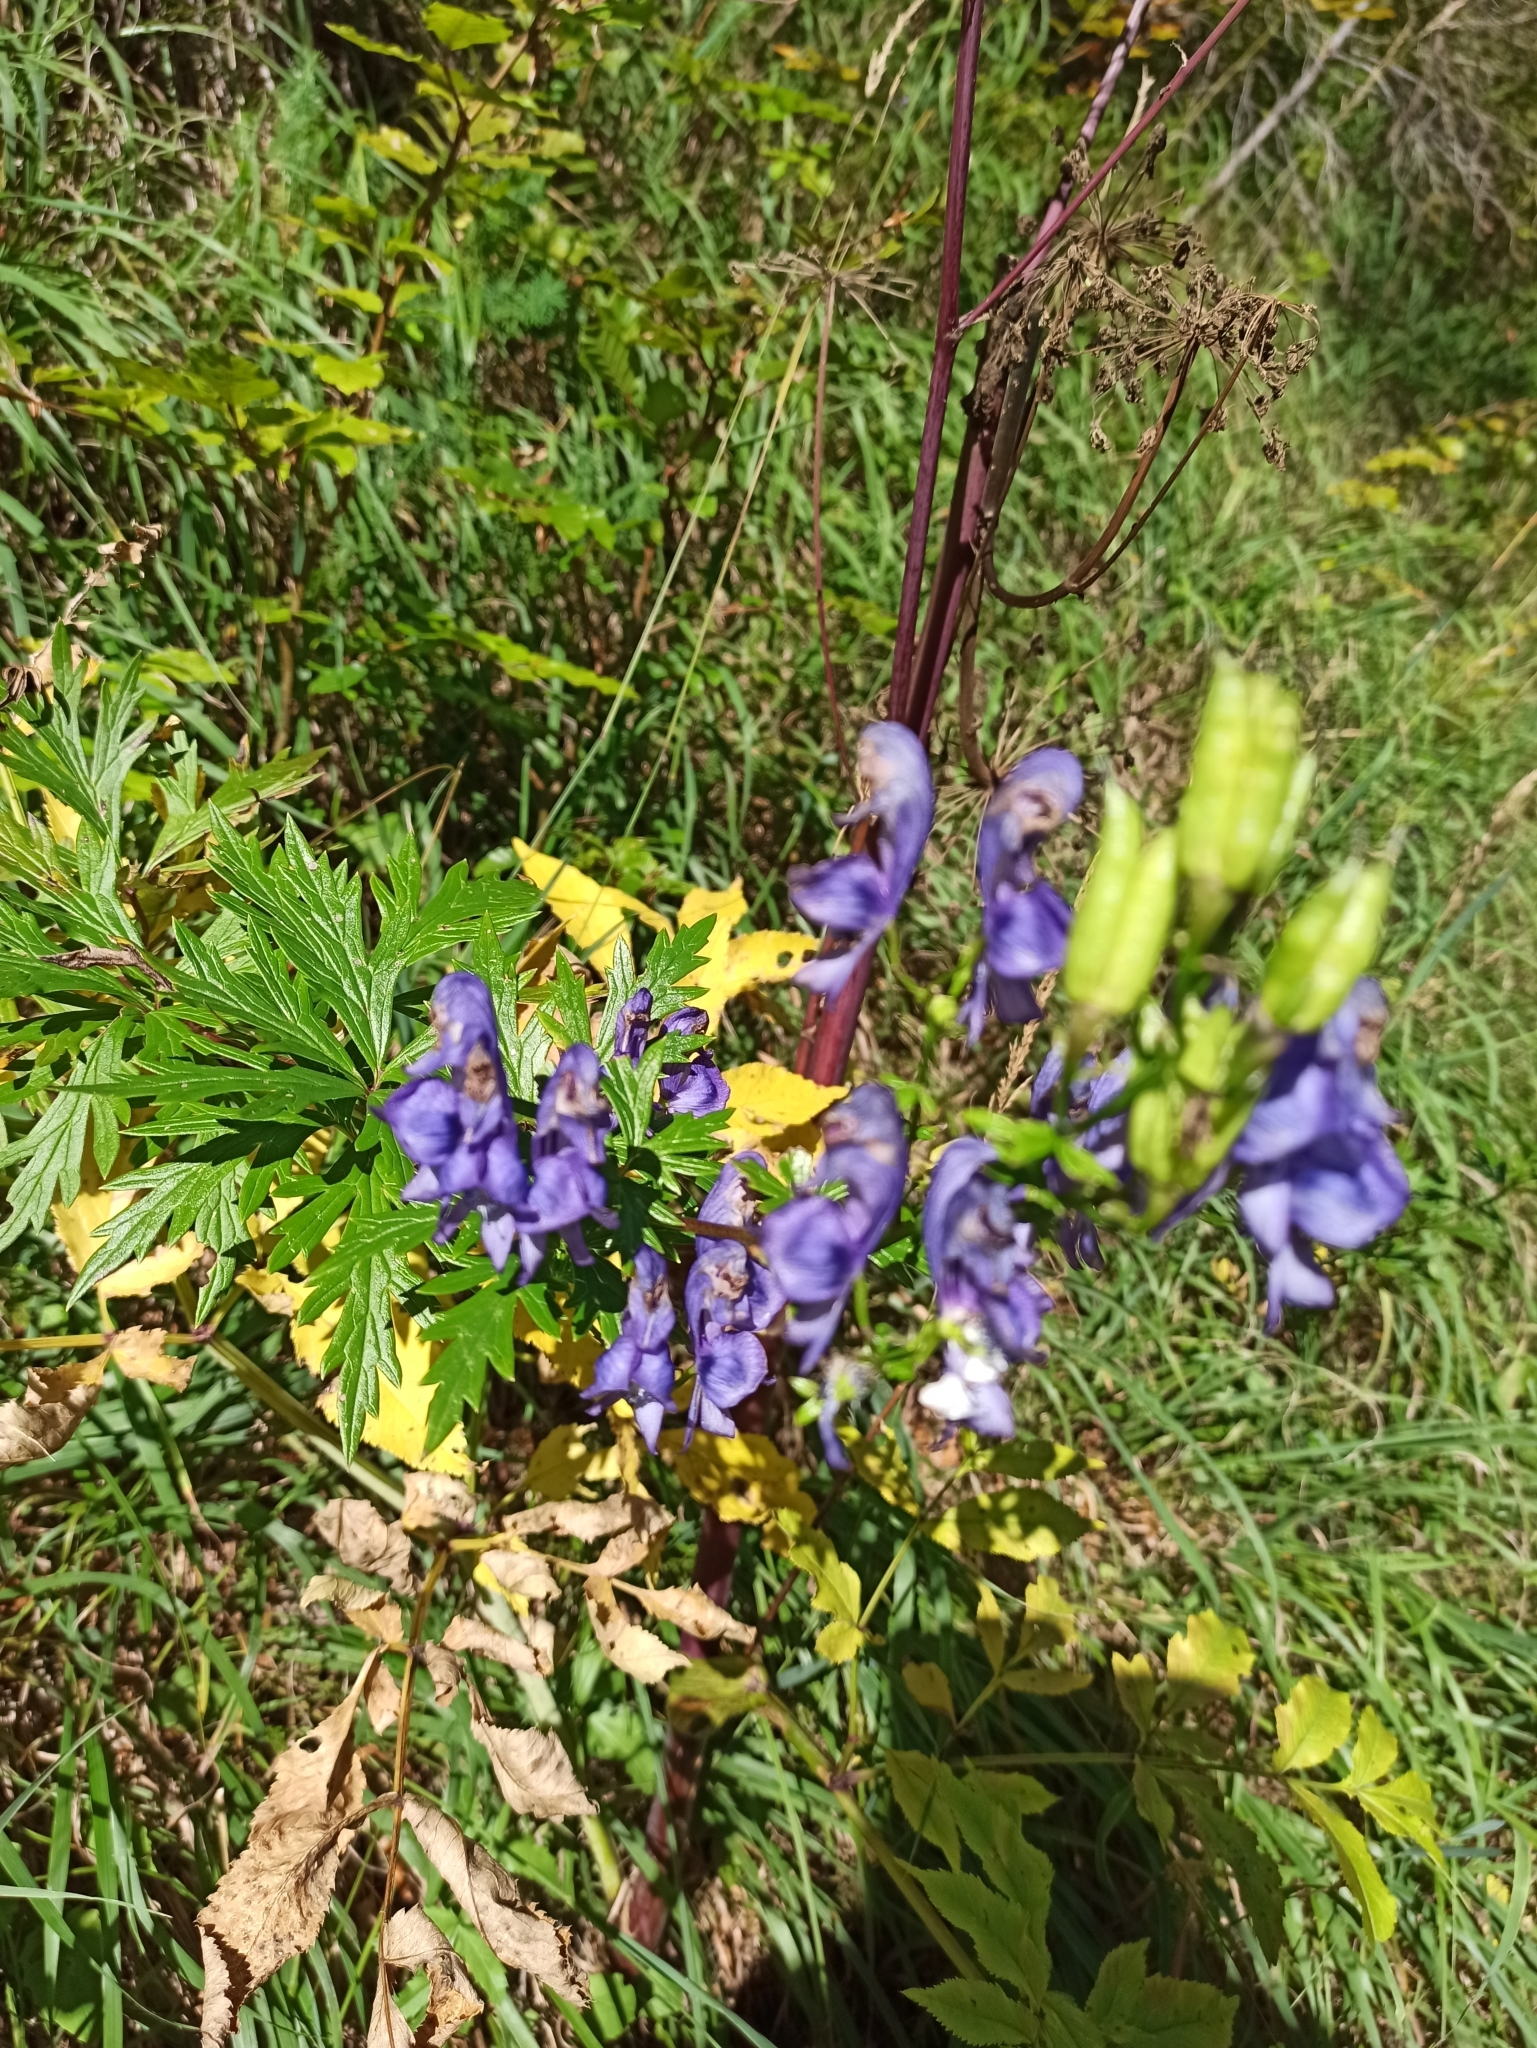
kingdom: Plantae
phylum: Tracheophyta
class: Magnoliopsida
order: Ranunculales
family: Ranunculaceae
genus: Aconitum
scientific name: Aconitum variegatum
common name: Manchurian monkshood
